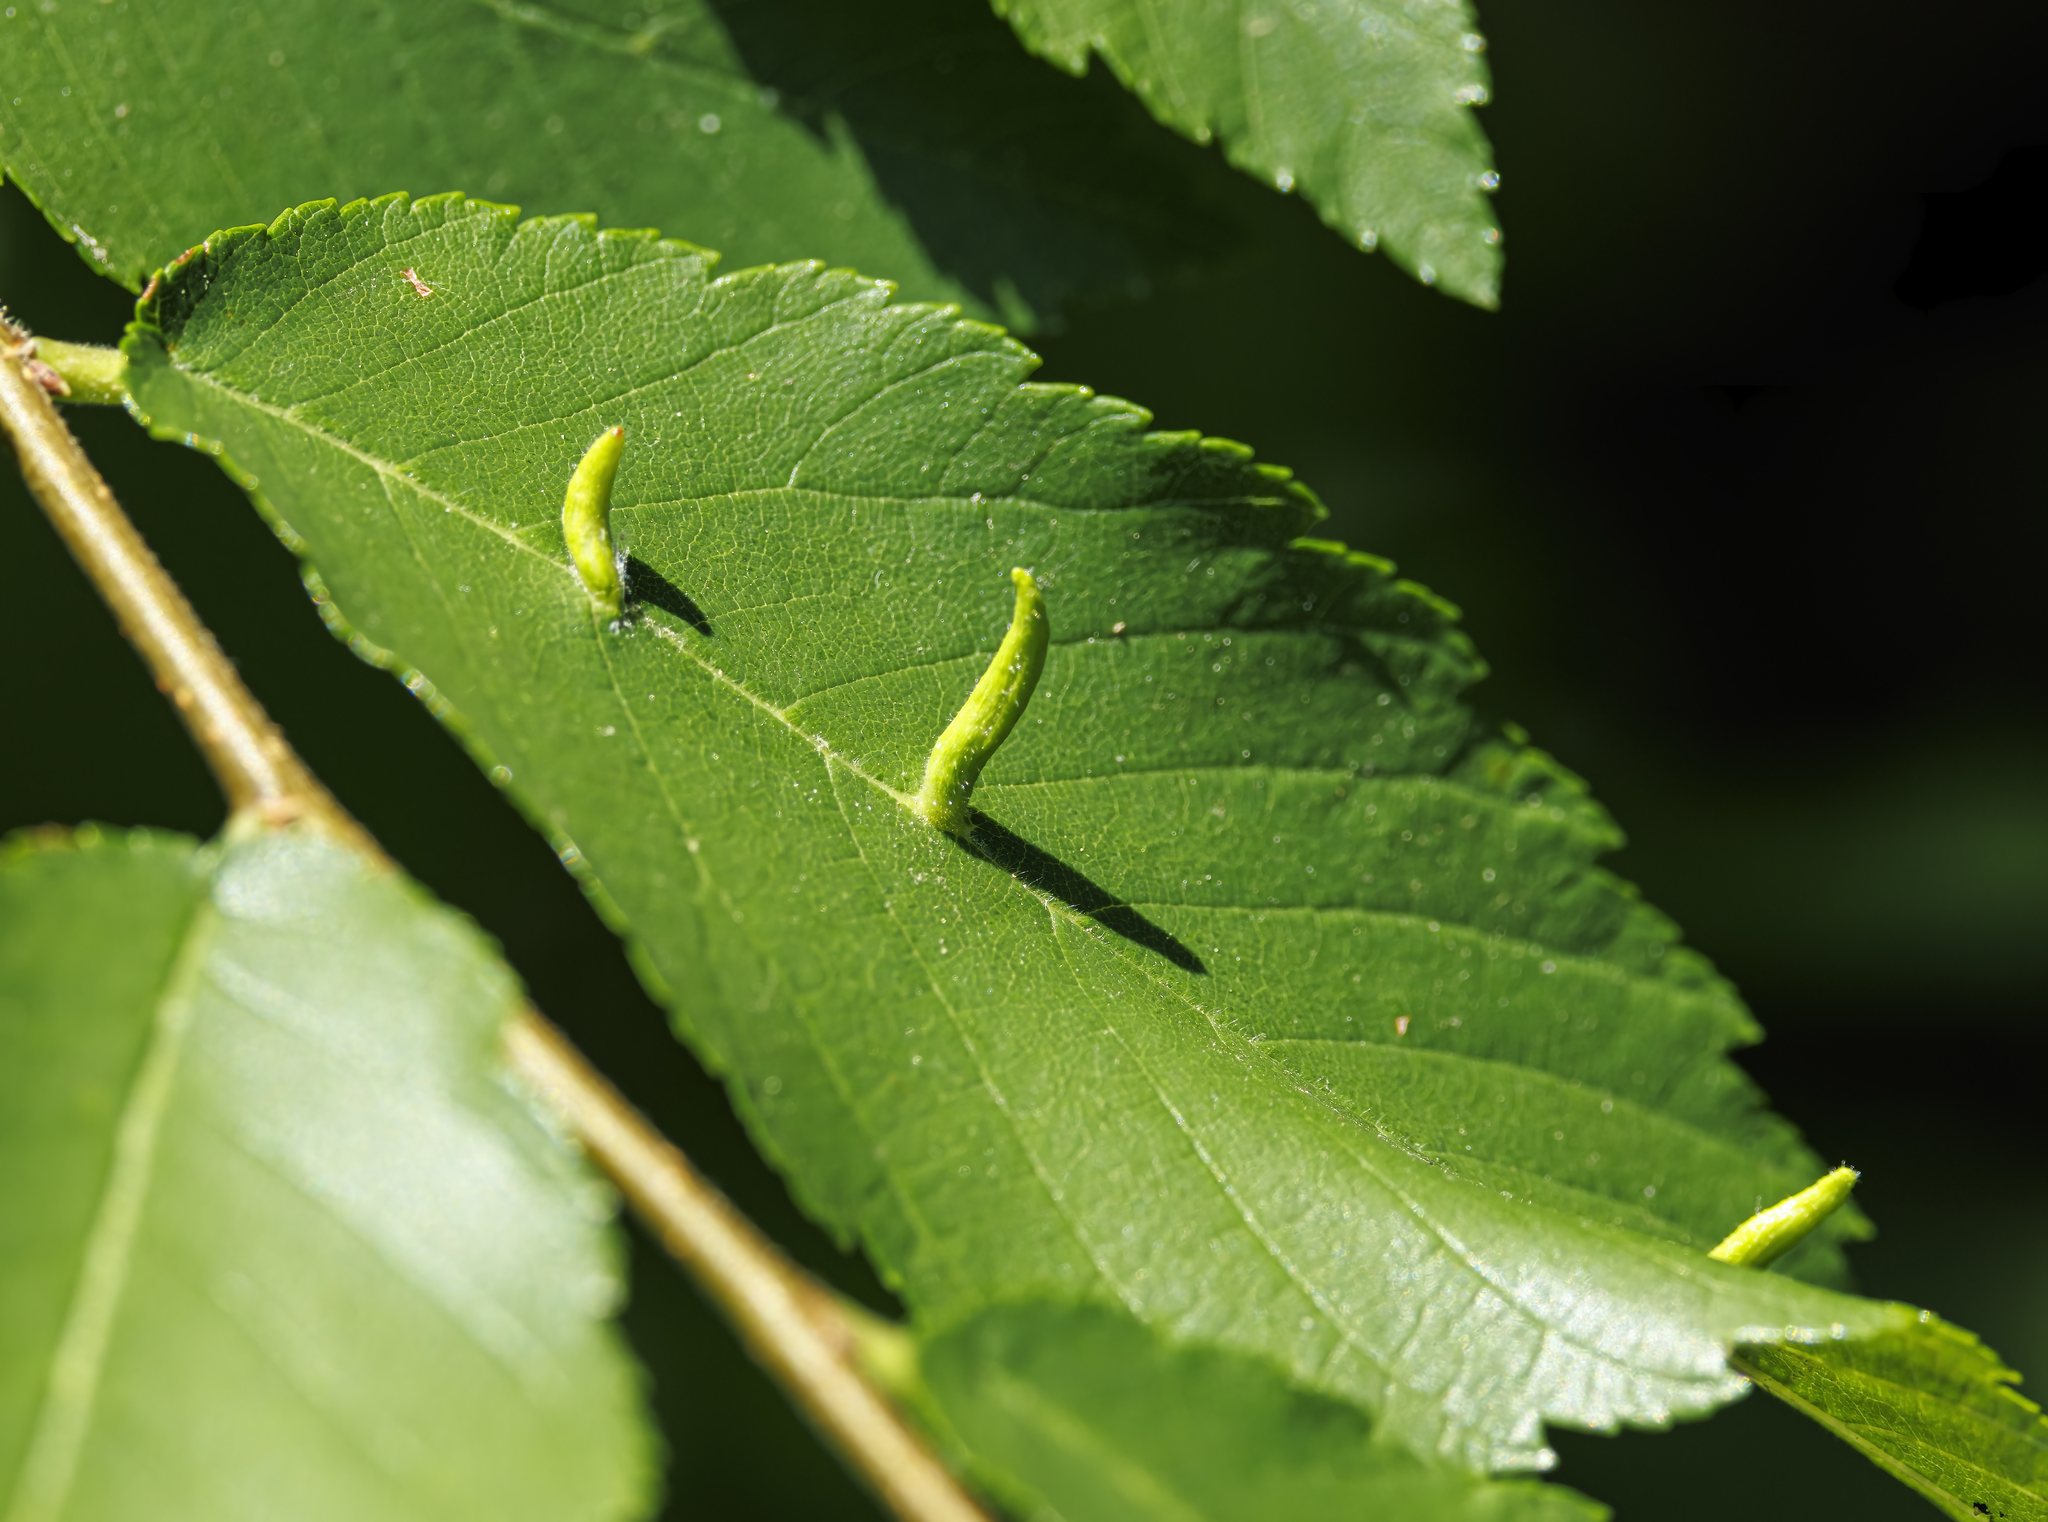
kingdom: Animalia
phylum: Arthropoda
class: Arachnida
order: Trombidiformes
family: Eriophyidae
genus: Aceria
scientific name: Aceria
